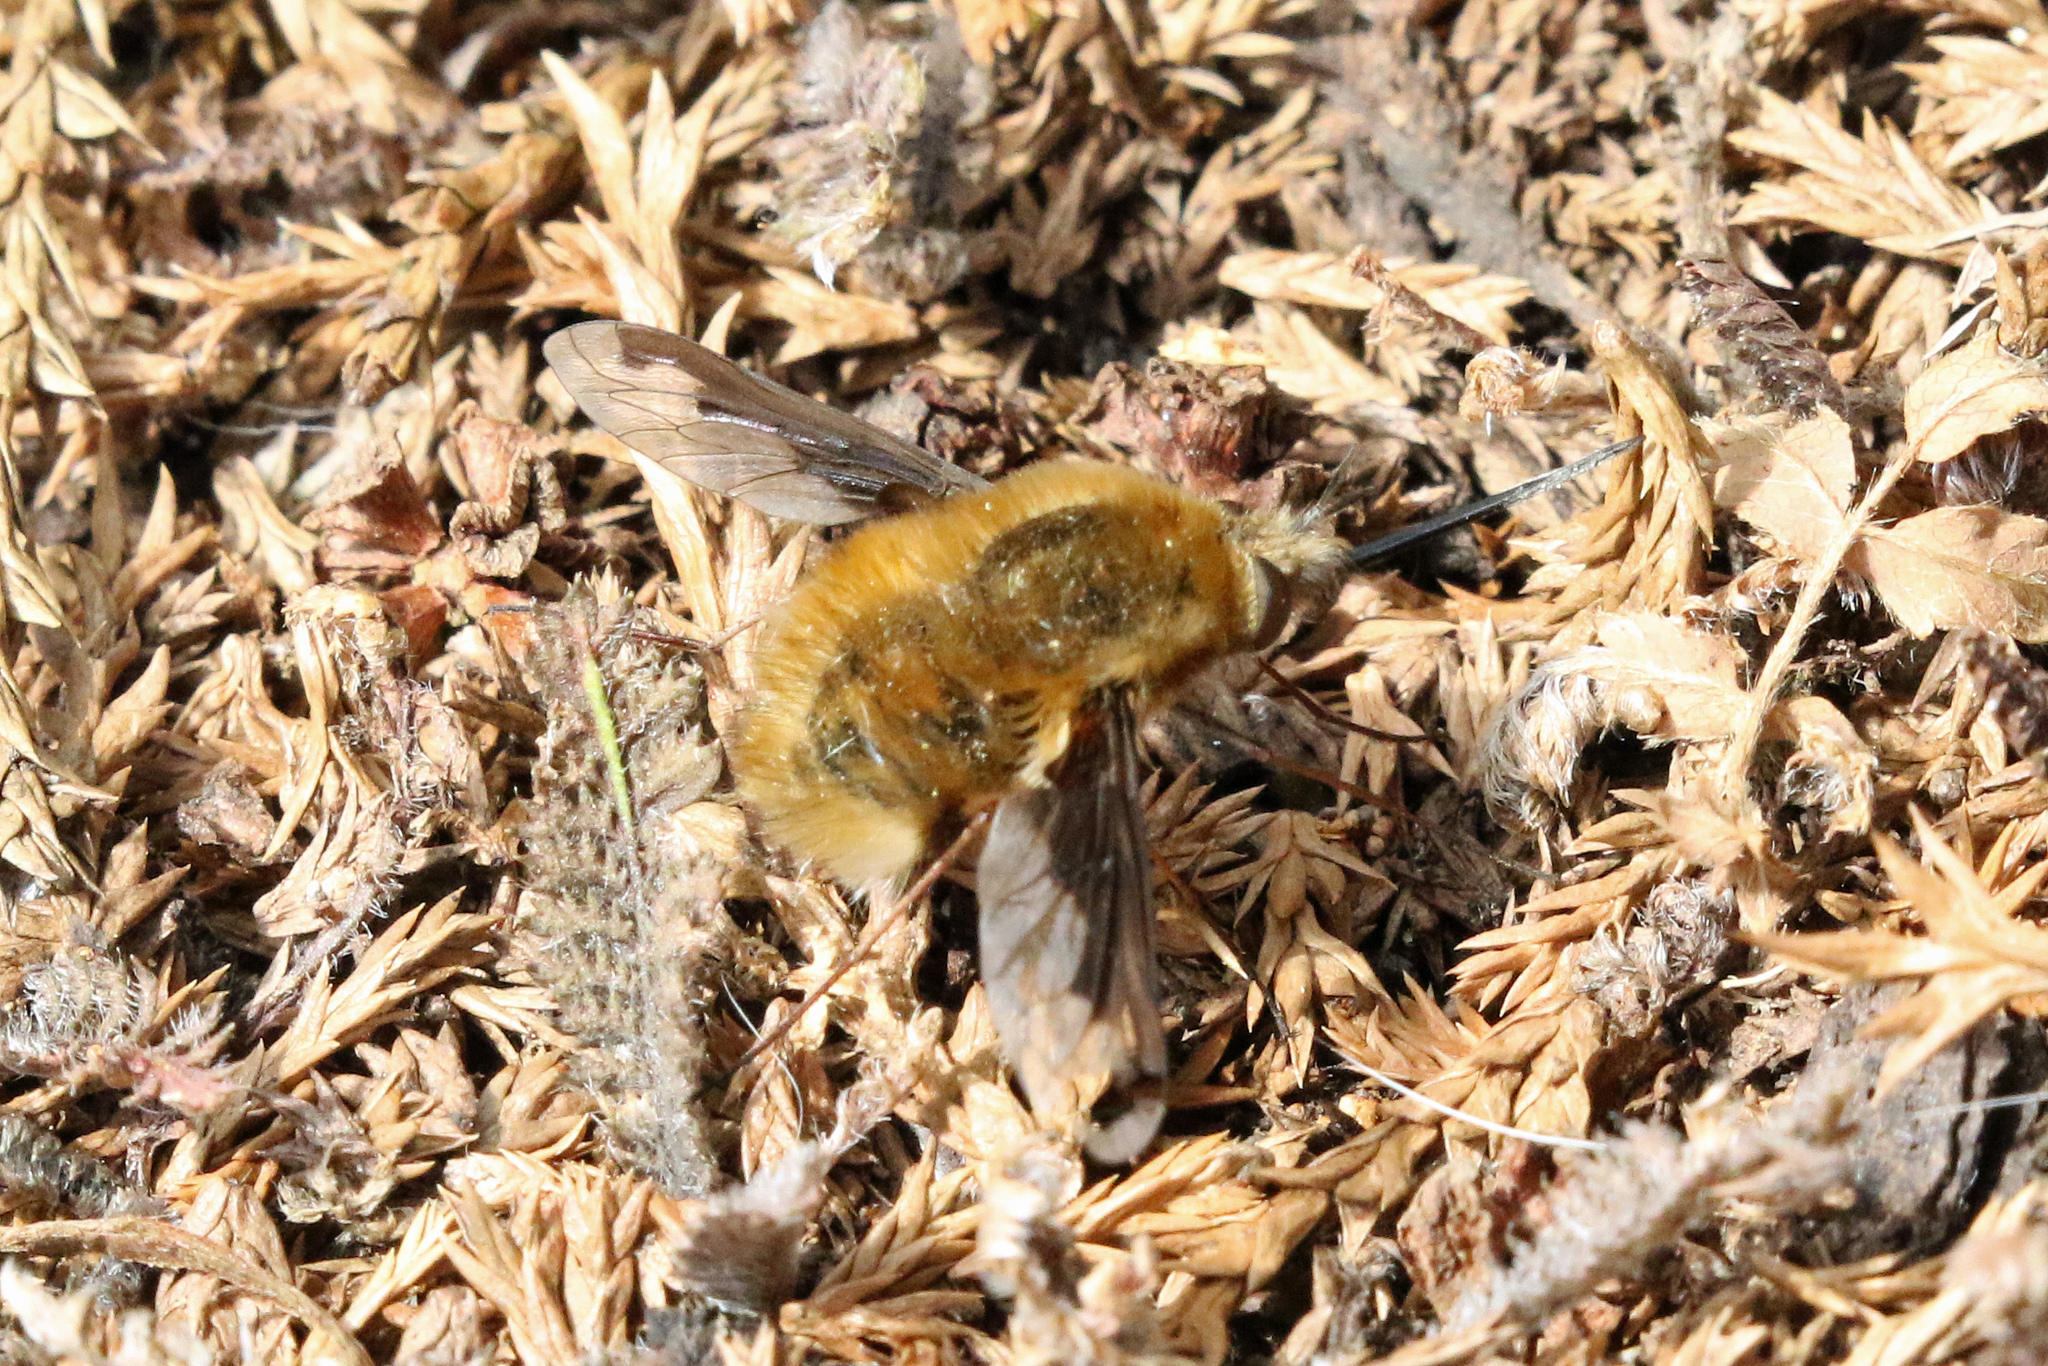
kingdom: Animalia
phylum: Arthropoda
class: Insecta
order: Diptera
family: Bombyliidae
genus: Bombylius
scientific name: Bombylius major
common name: Bee fly
